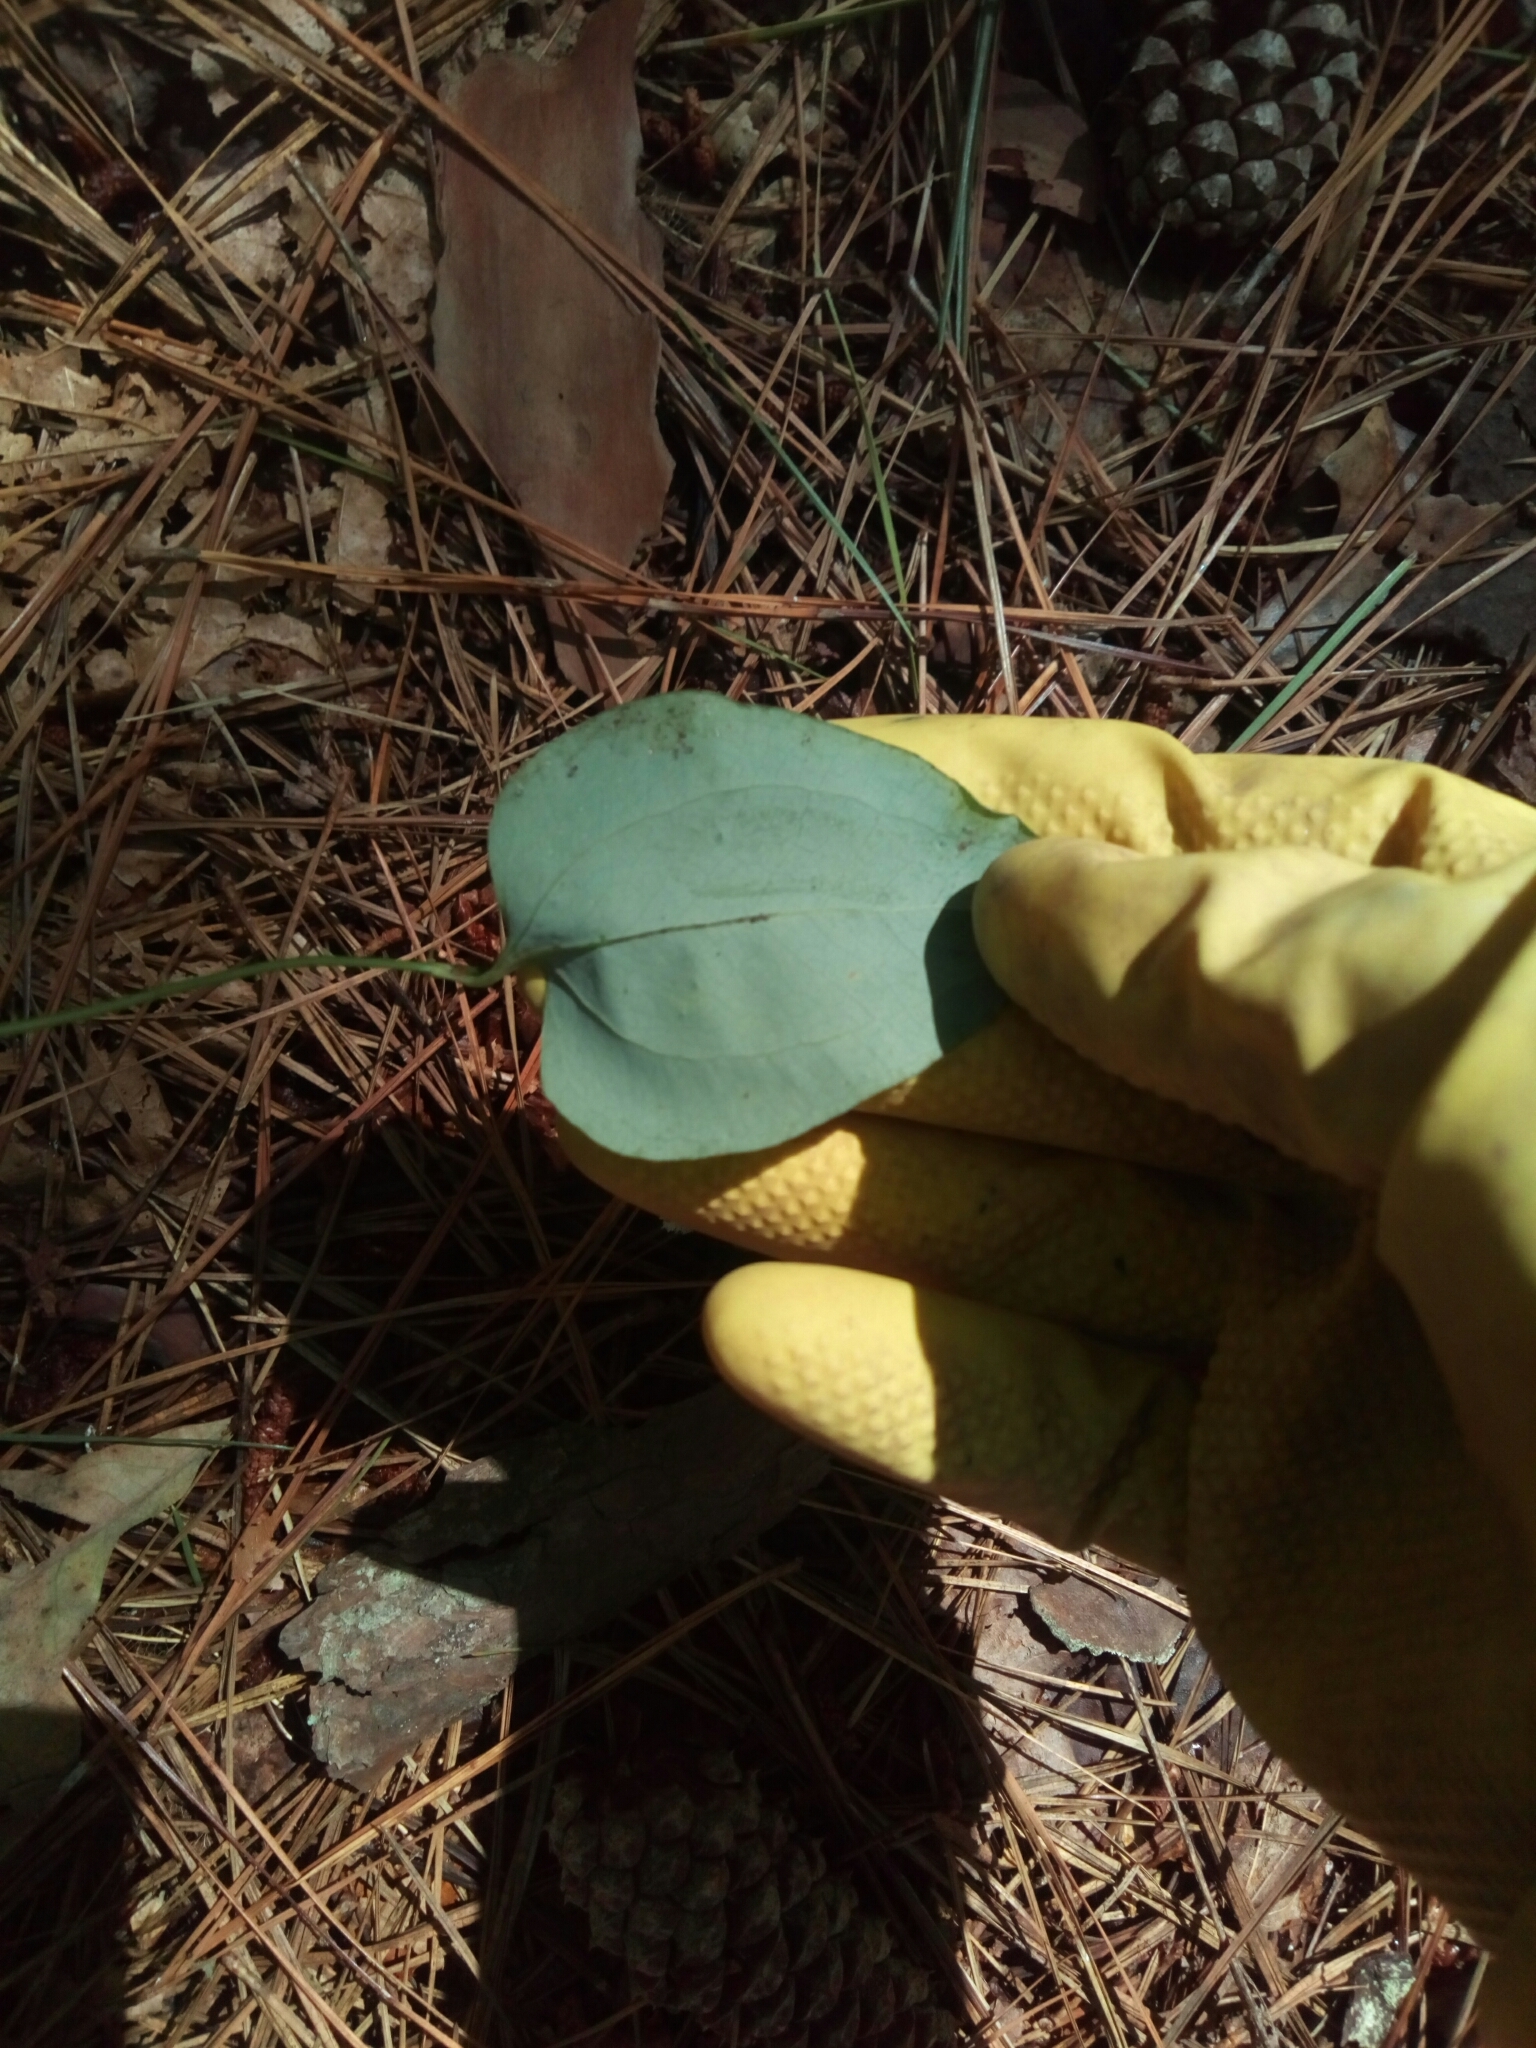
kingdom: Plantae
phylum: Tracheophyta
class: Liliopsida
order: Liliales
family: Smilacaceae
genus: Smilax
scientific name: Smilax glauca
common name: Cat greenbrier
